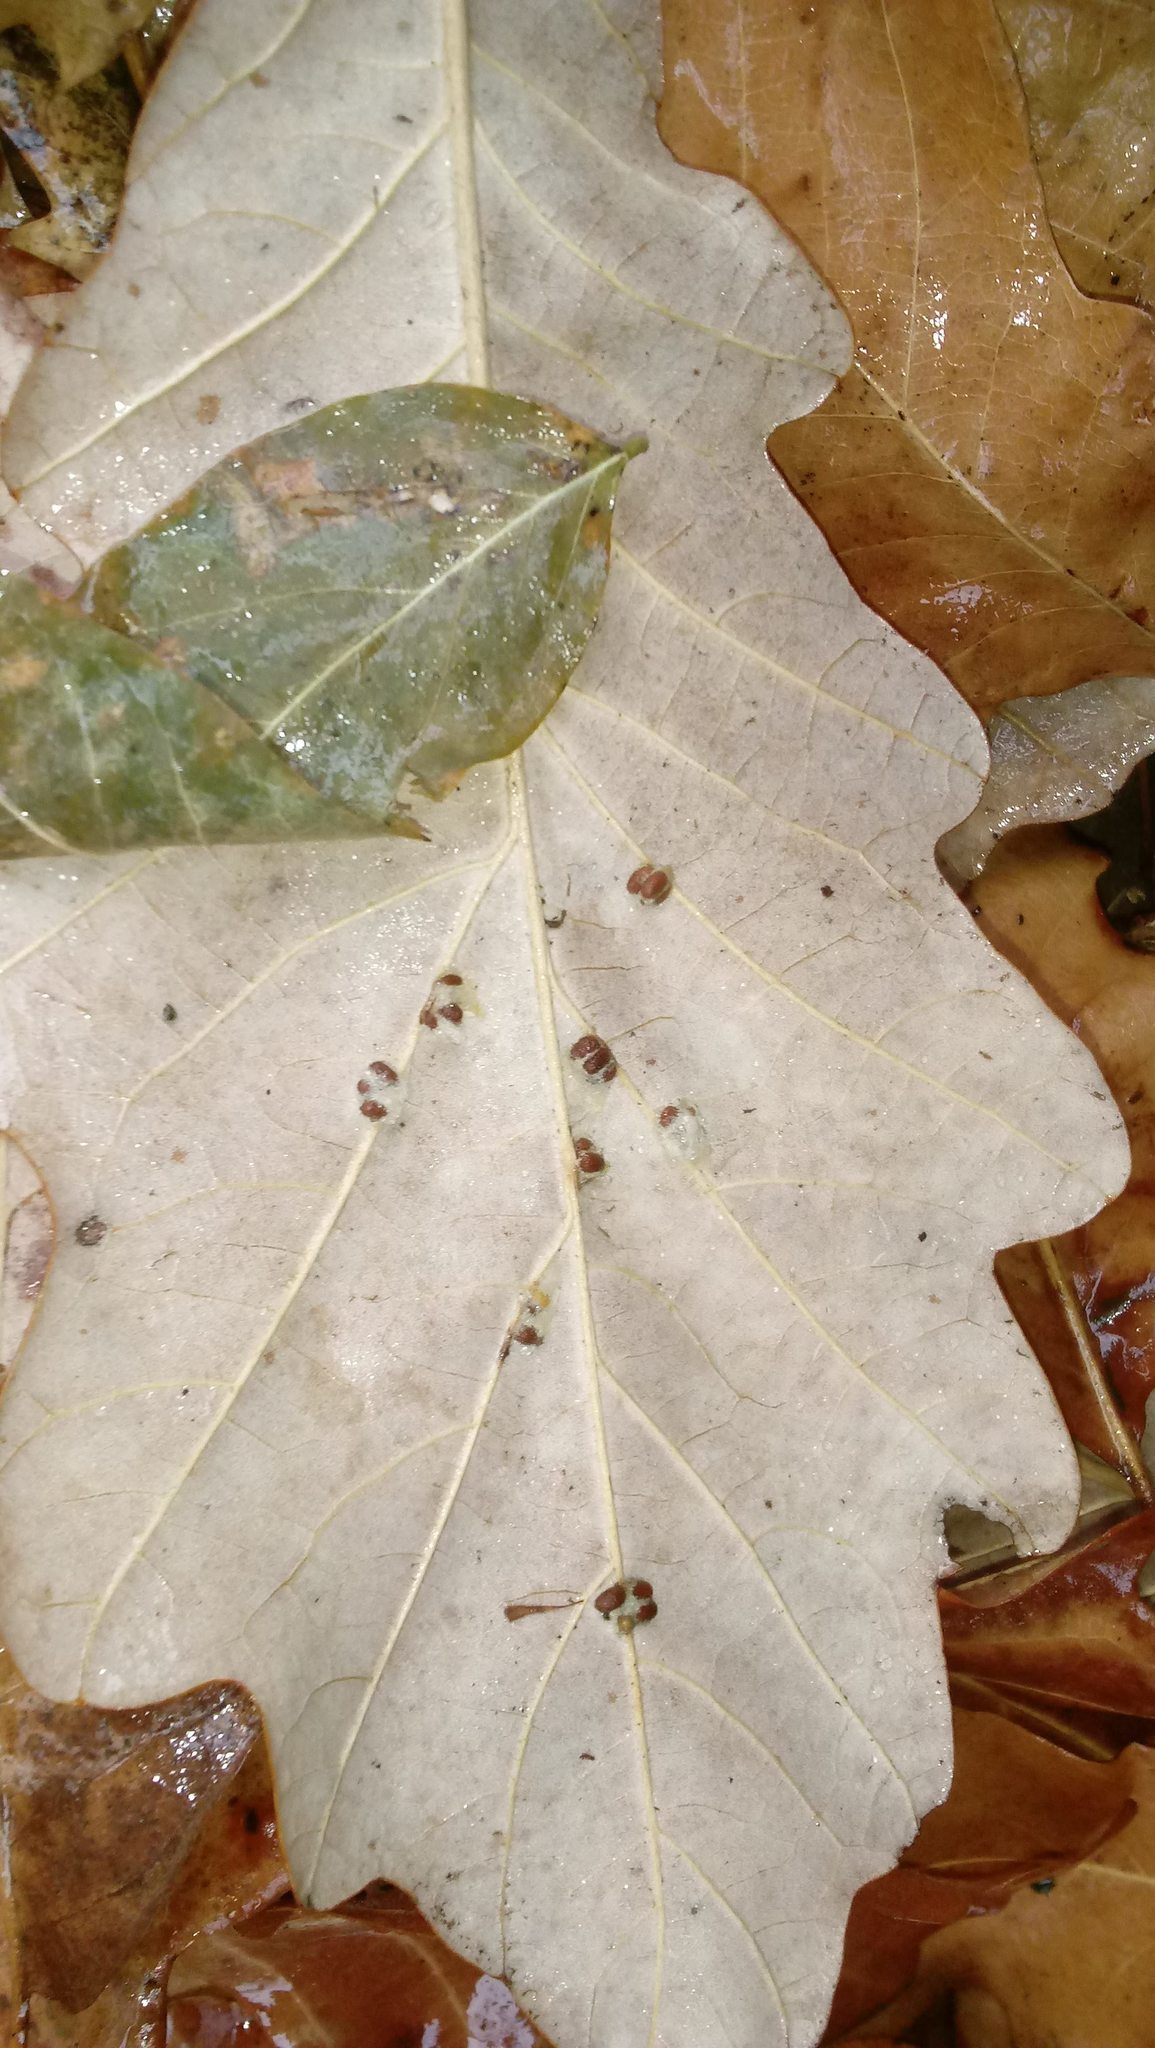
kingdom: Animalia
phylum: Arthropoda
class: Insecta
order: Hymenoptera
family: Cynipidae
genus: Andricus
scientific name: Andricus Druon ignotum
